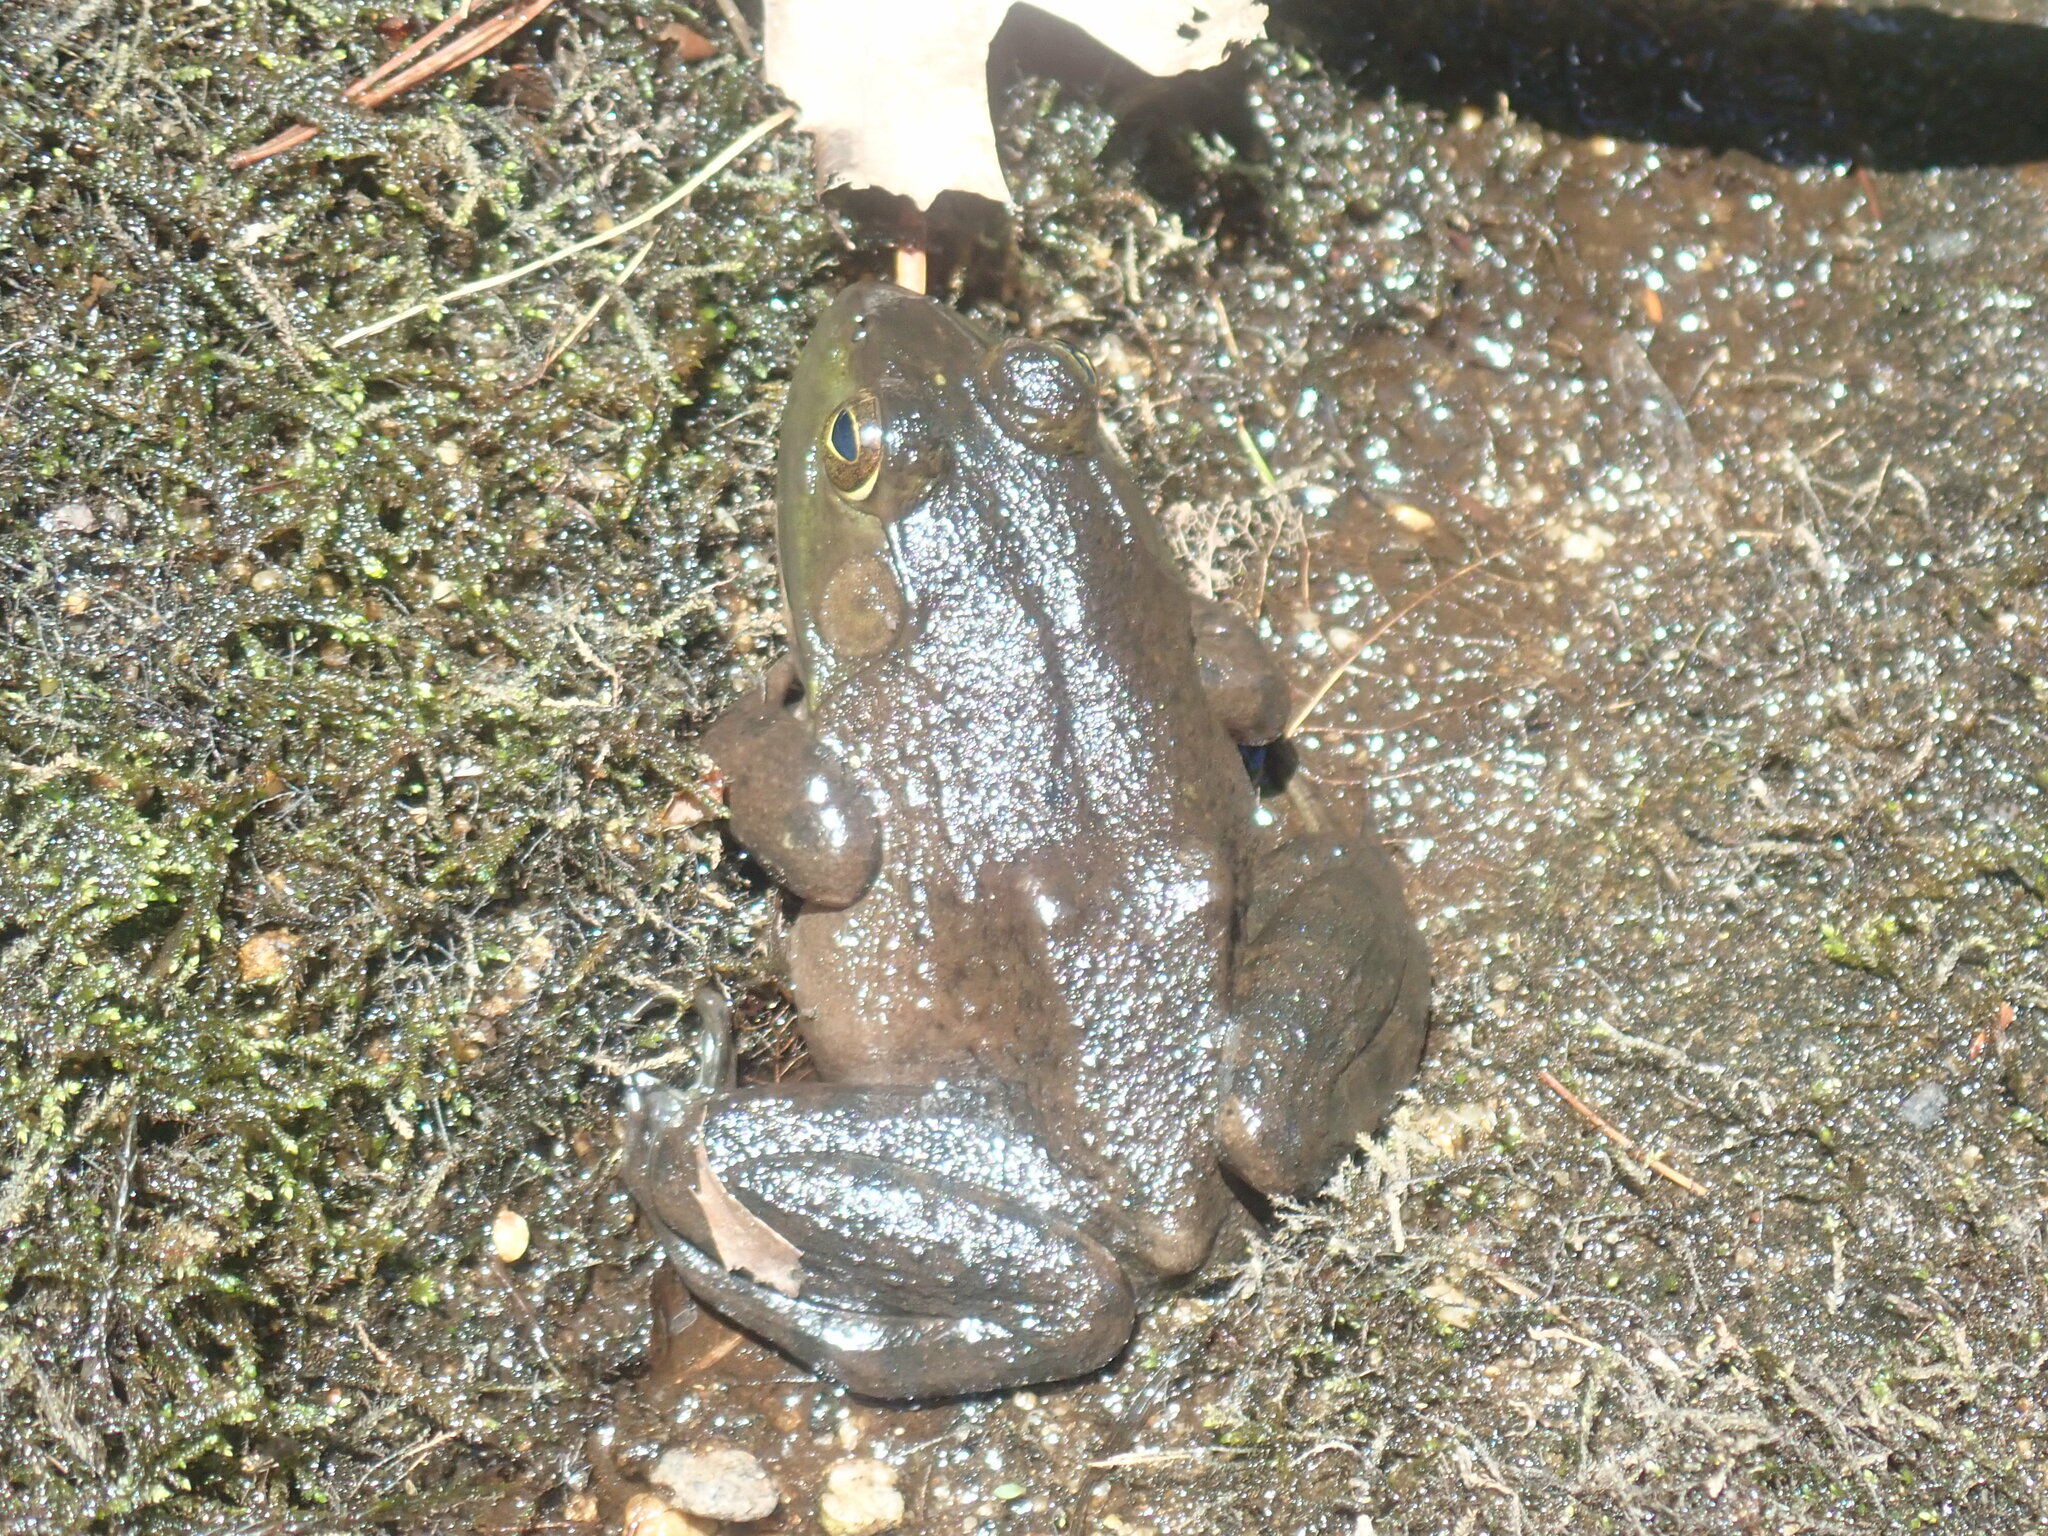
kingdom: Animalia
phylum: Chordata
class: Amphibia
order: Anura
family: Ranidae
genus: Lithobates
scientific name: Lithobates catesbeianus
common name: American bullfrog
